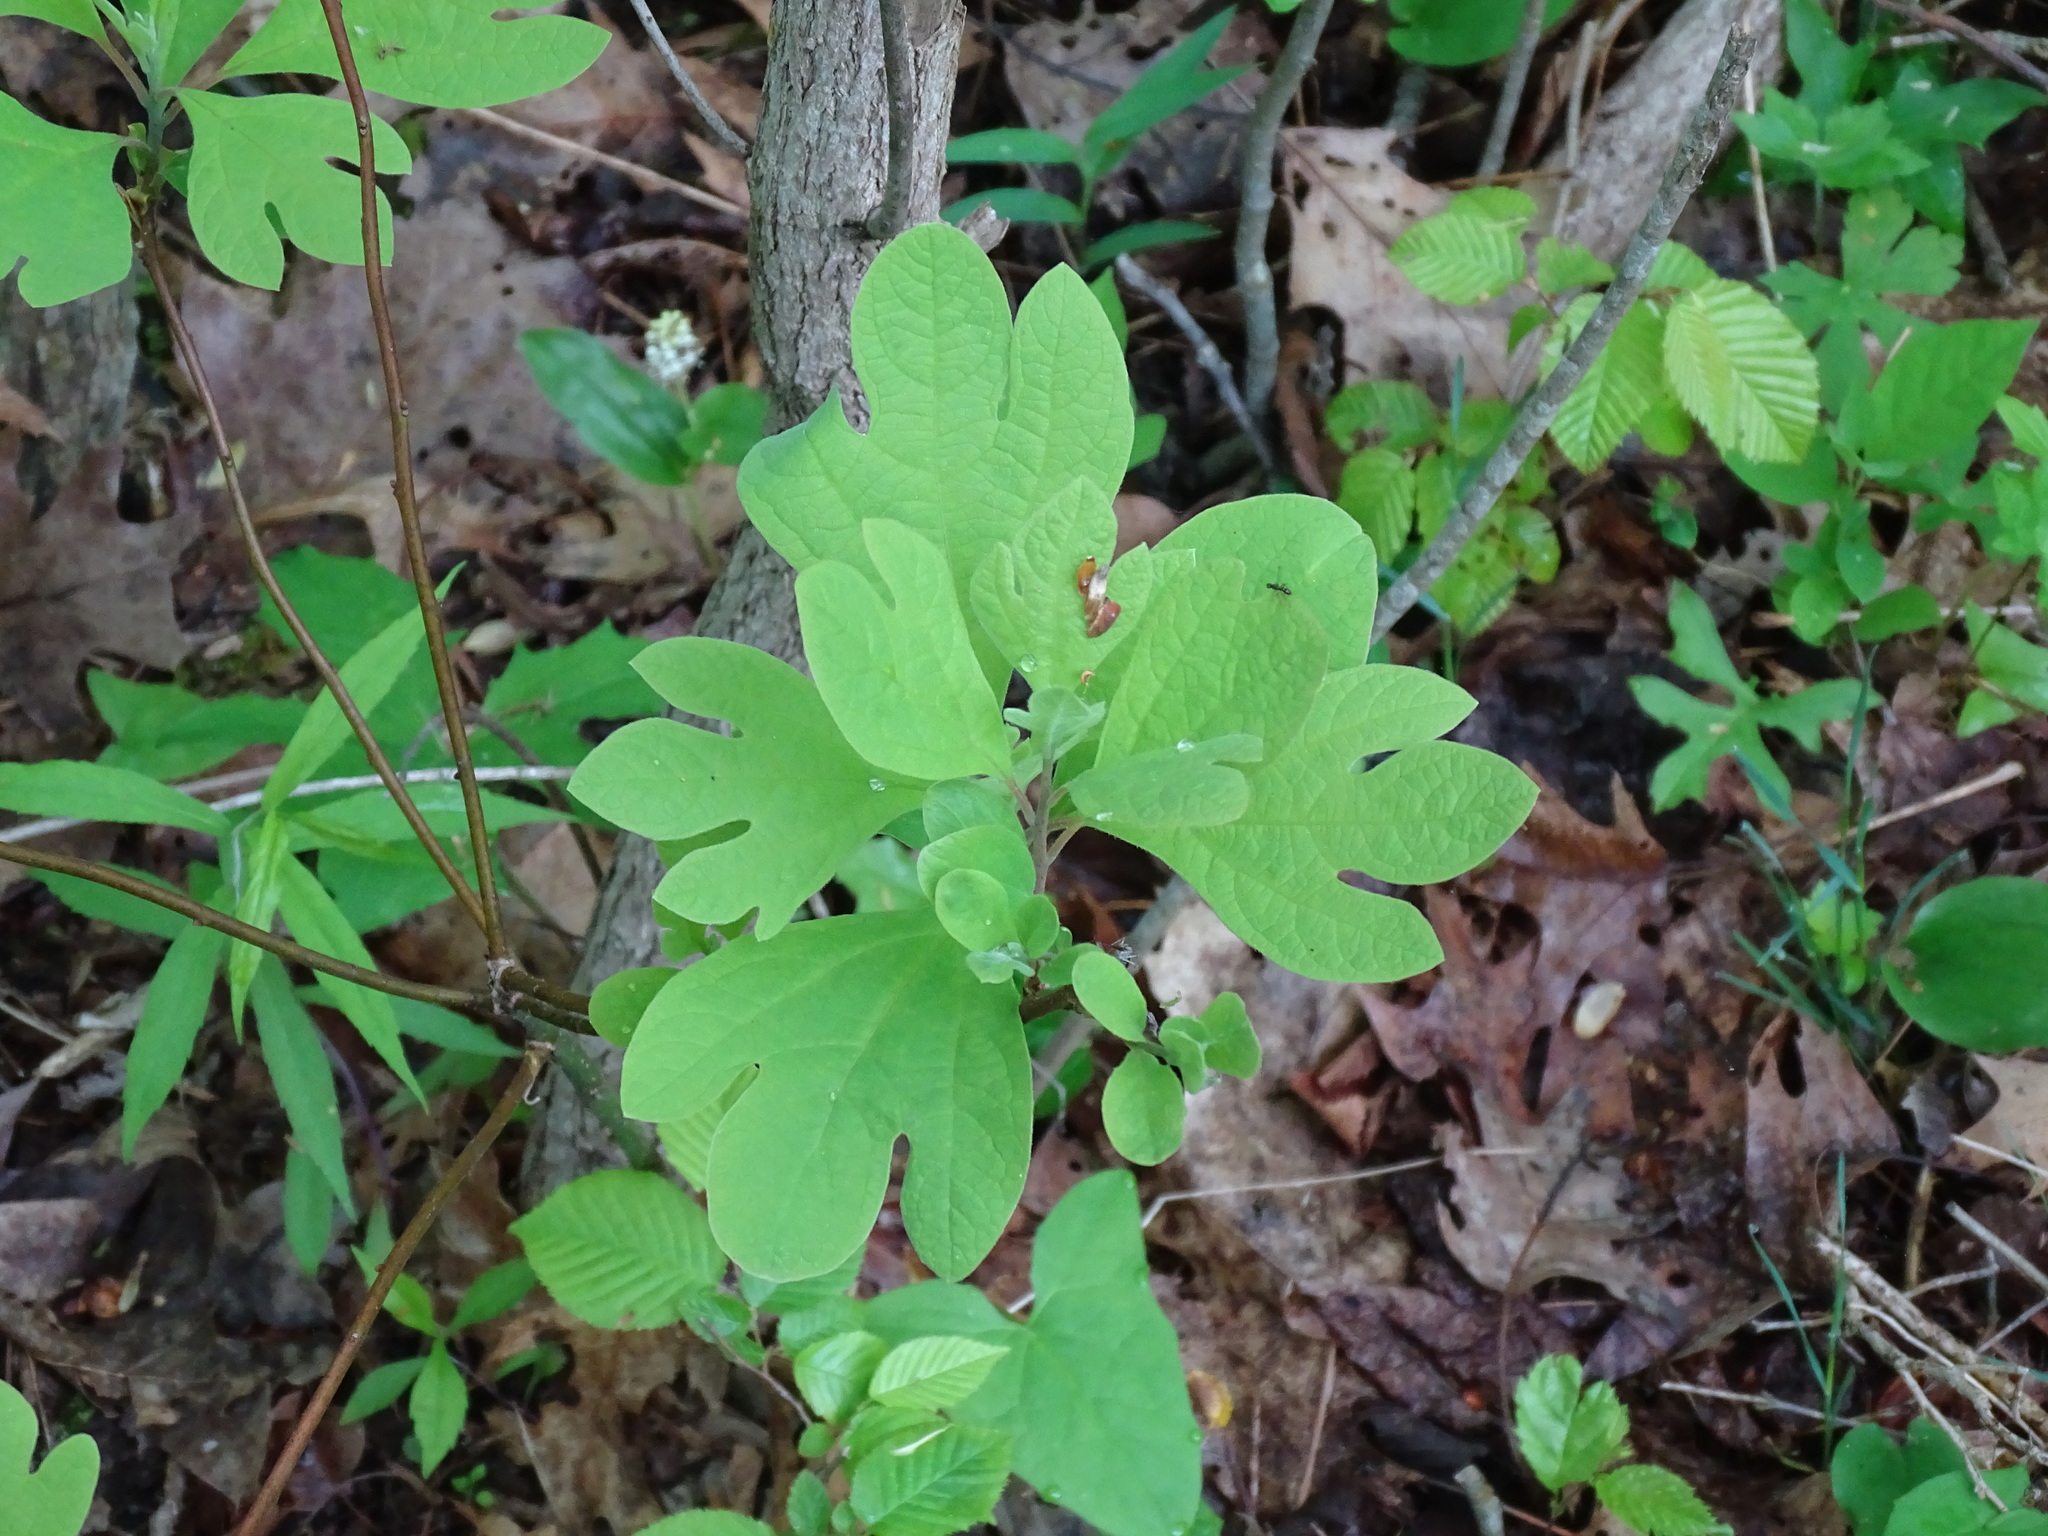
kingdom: Plantae
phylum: Tracheophyta
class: Magnoliopsida
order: Laurales
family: Lauraceae
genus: Sassafras
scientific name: Sassafras albidum
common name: Sassafras
